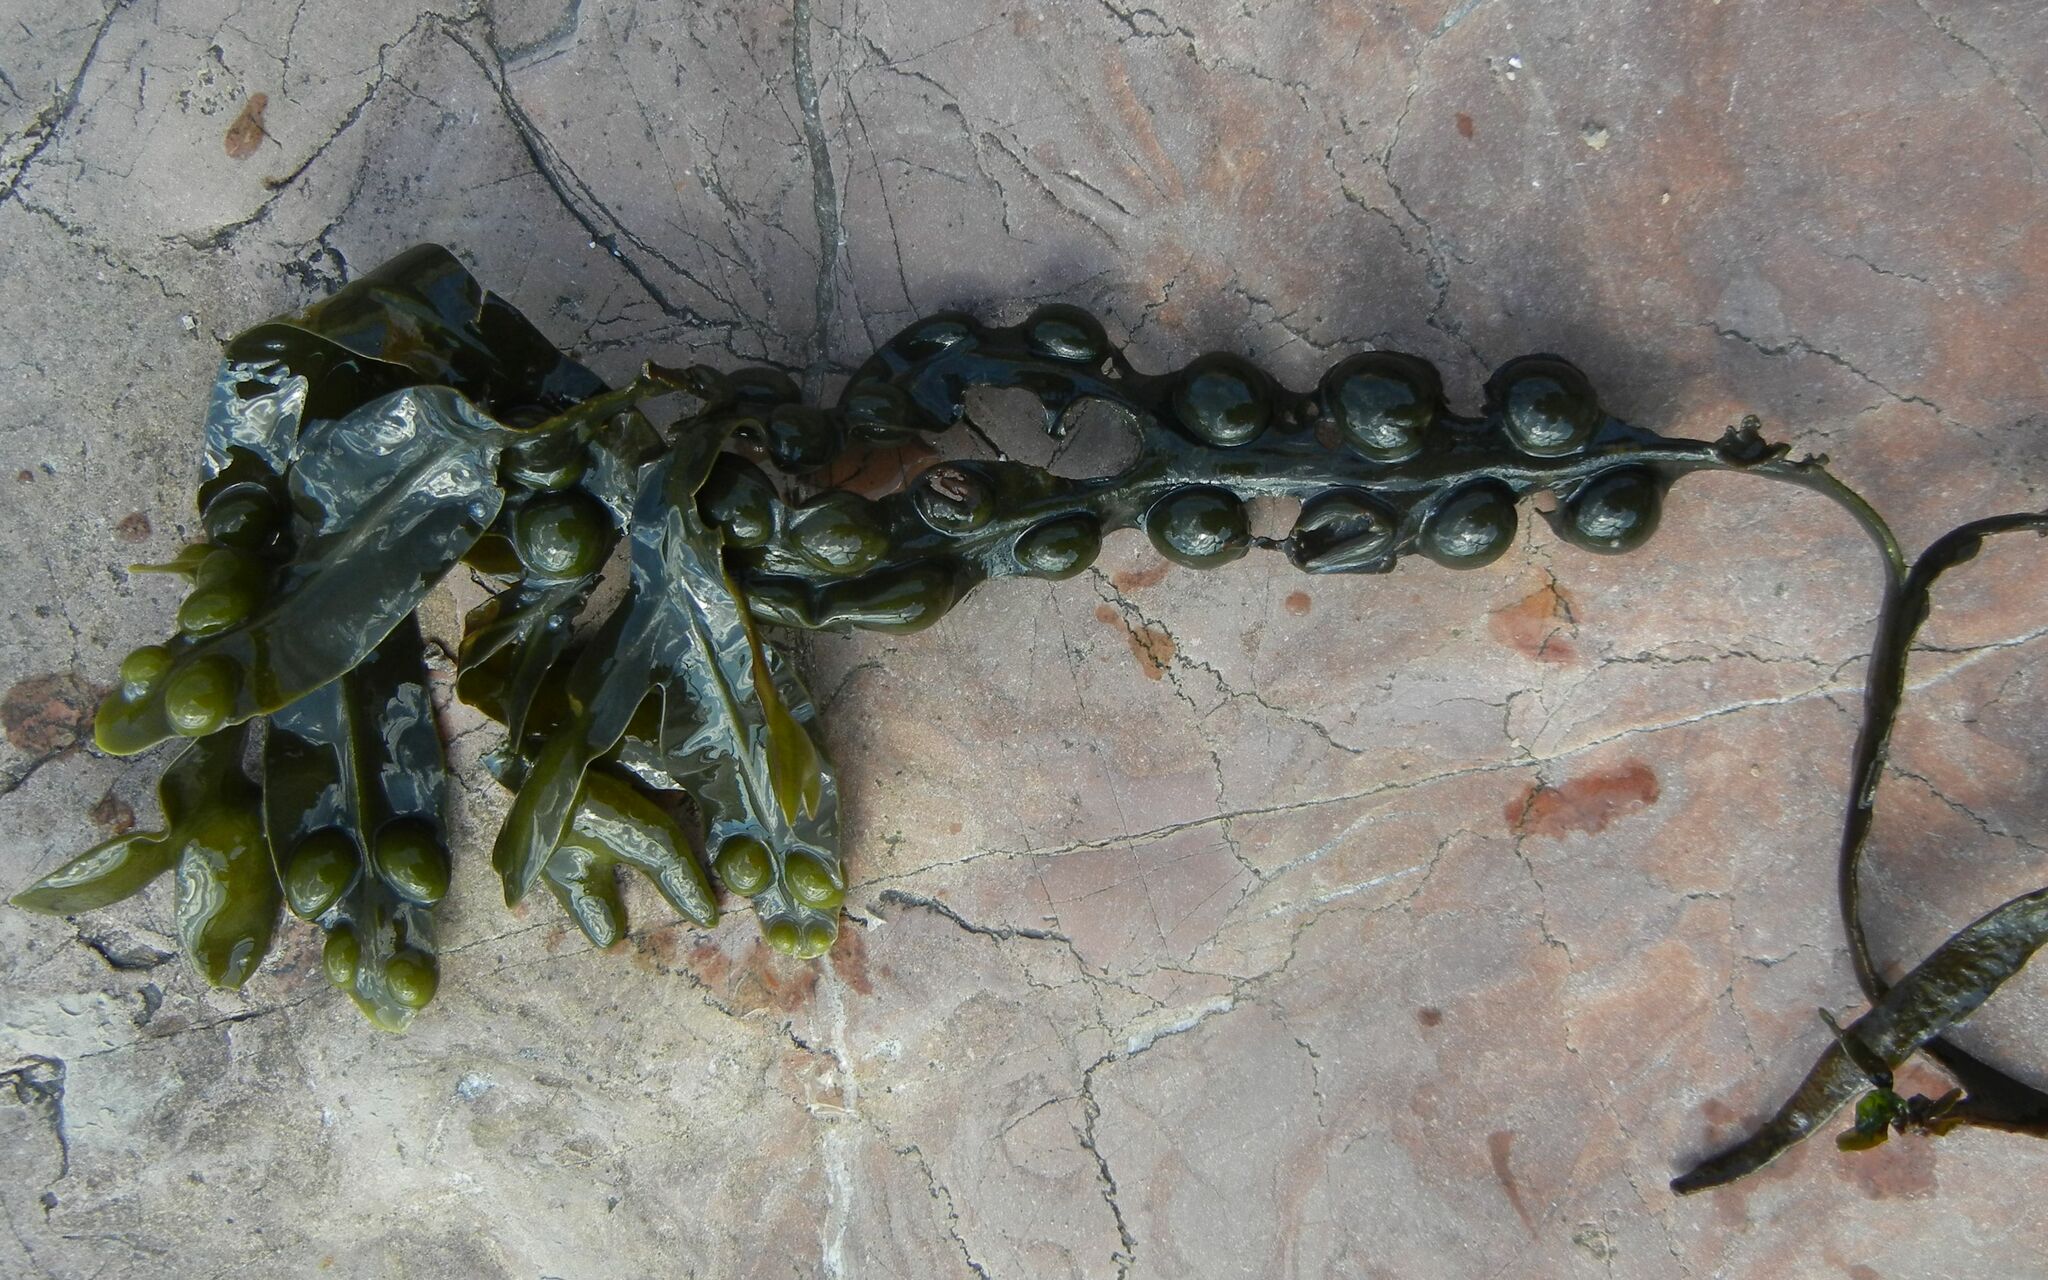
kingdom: Chromista
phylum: Ochrophyta
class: Phaeophyceae
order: Fucales
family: Fucaceae
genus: Fucus
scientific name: Fucus vesiculosus
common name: Bladder wrack
